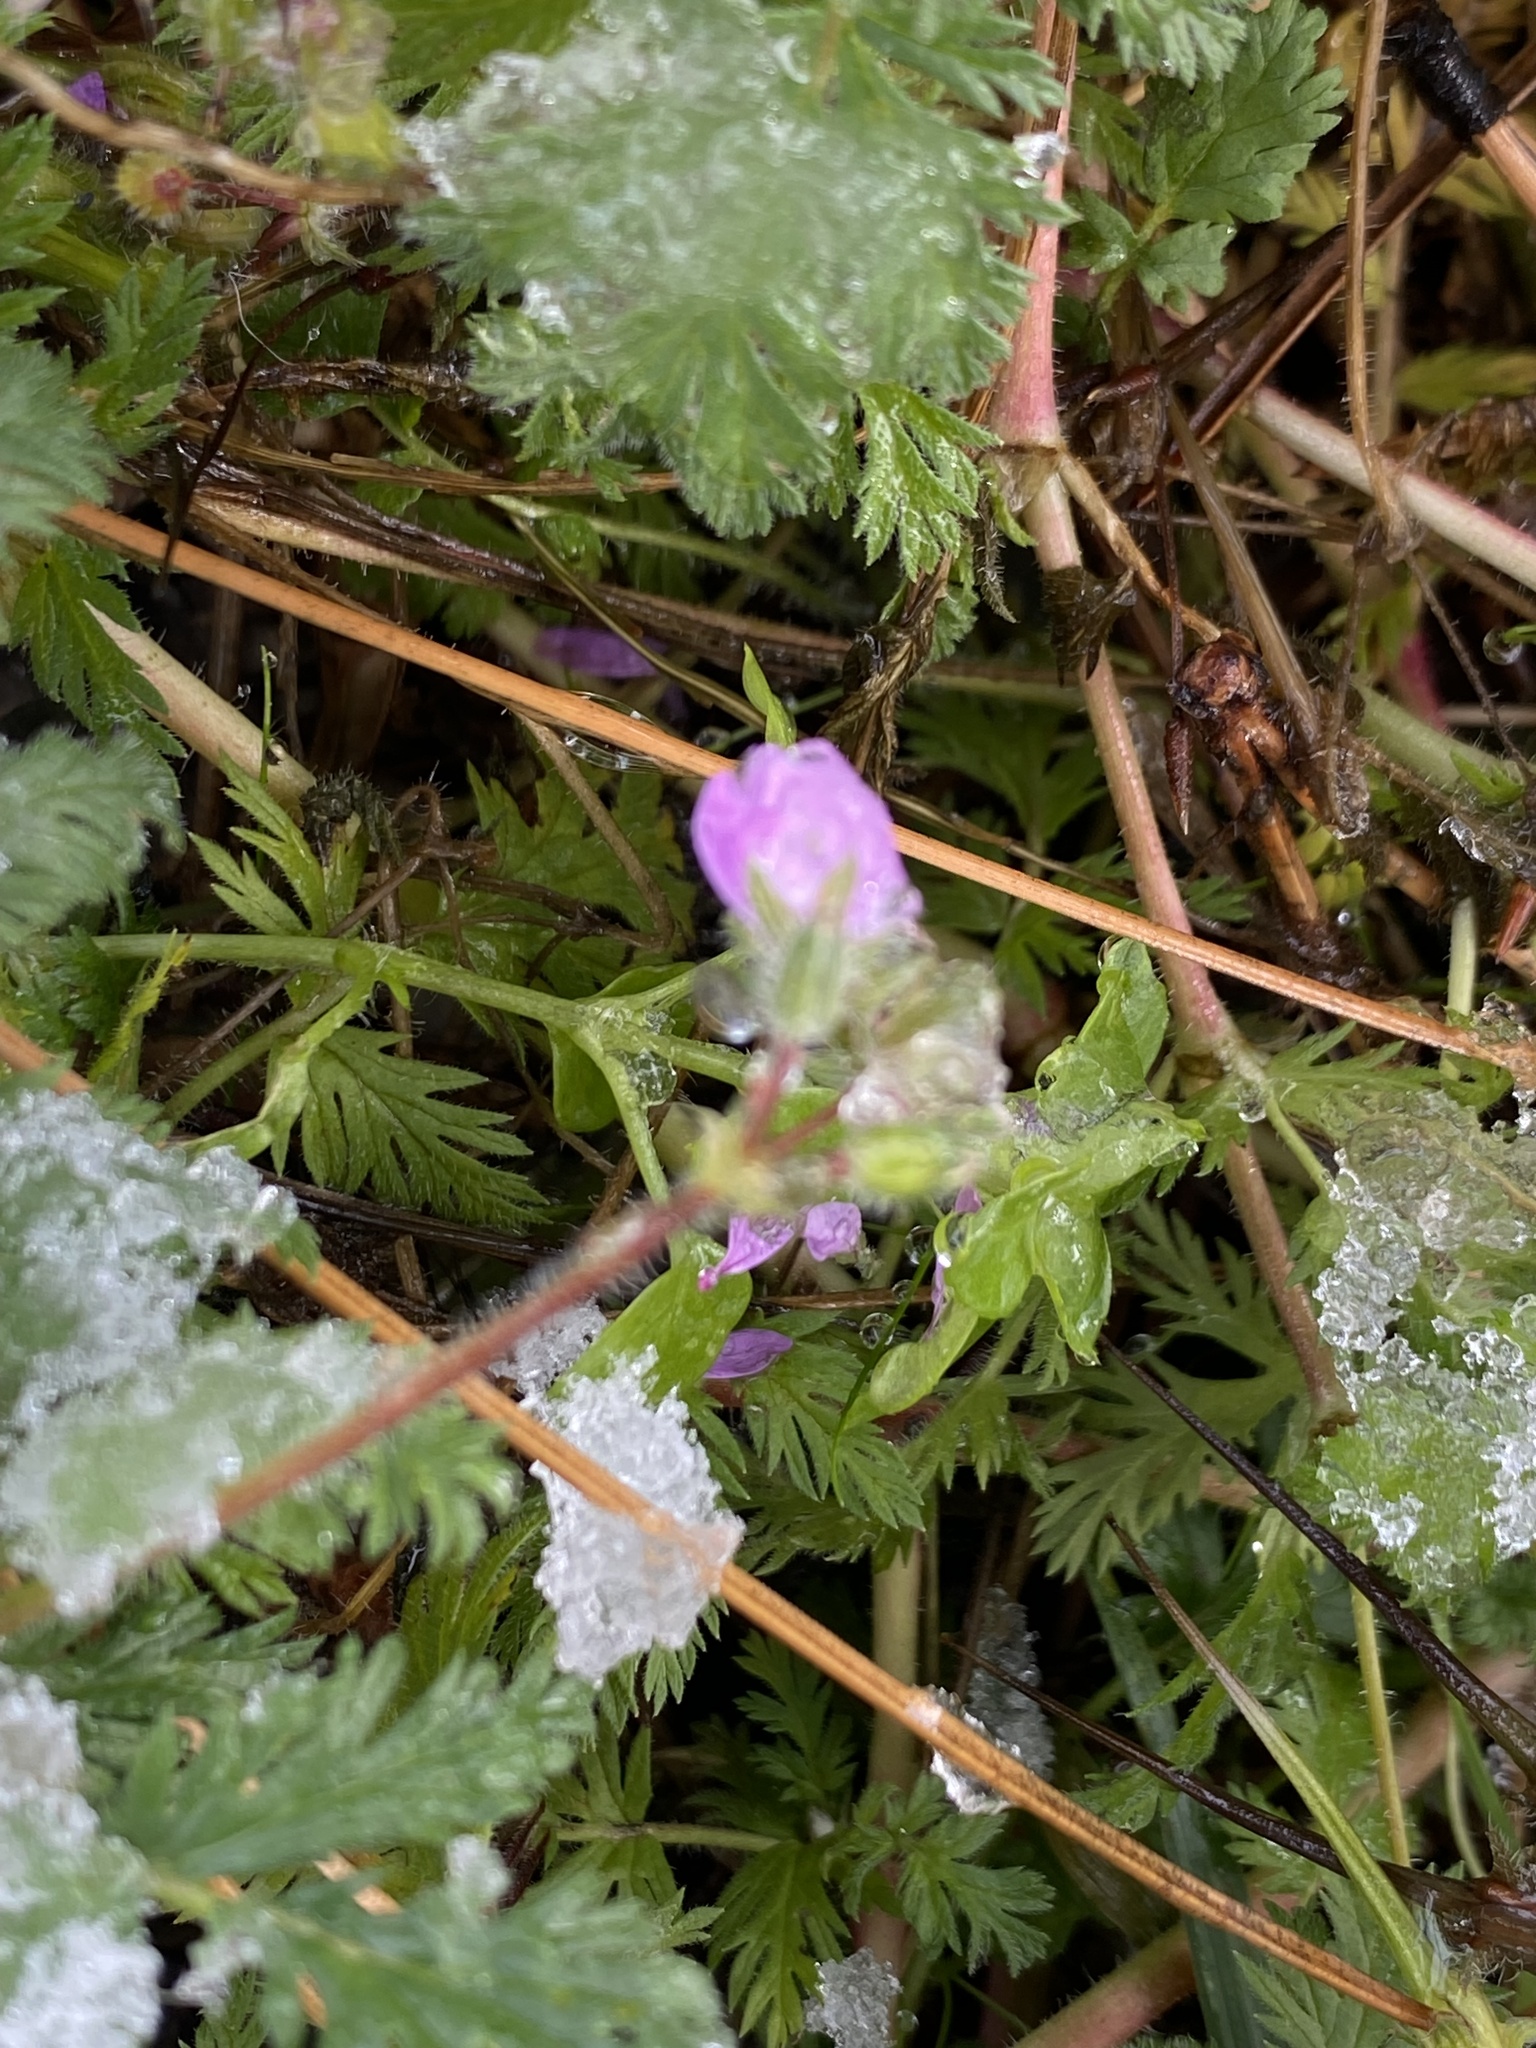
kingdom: Plantae
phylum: Tracheophyta
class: Magnoliopsida
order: Geraniales
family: Geraniaceae
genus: Erodium
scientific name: Erodium cicutarium
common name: Common stork's-bill
